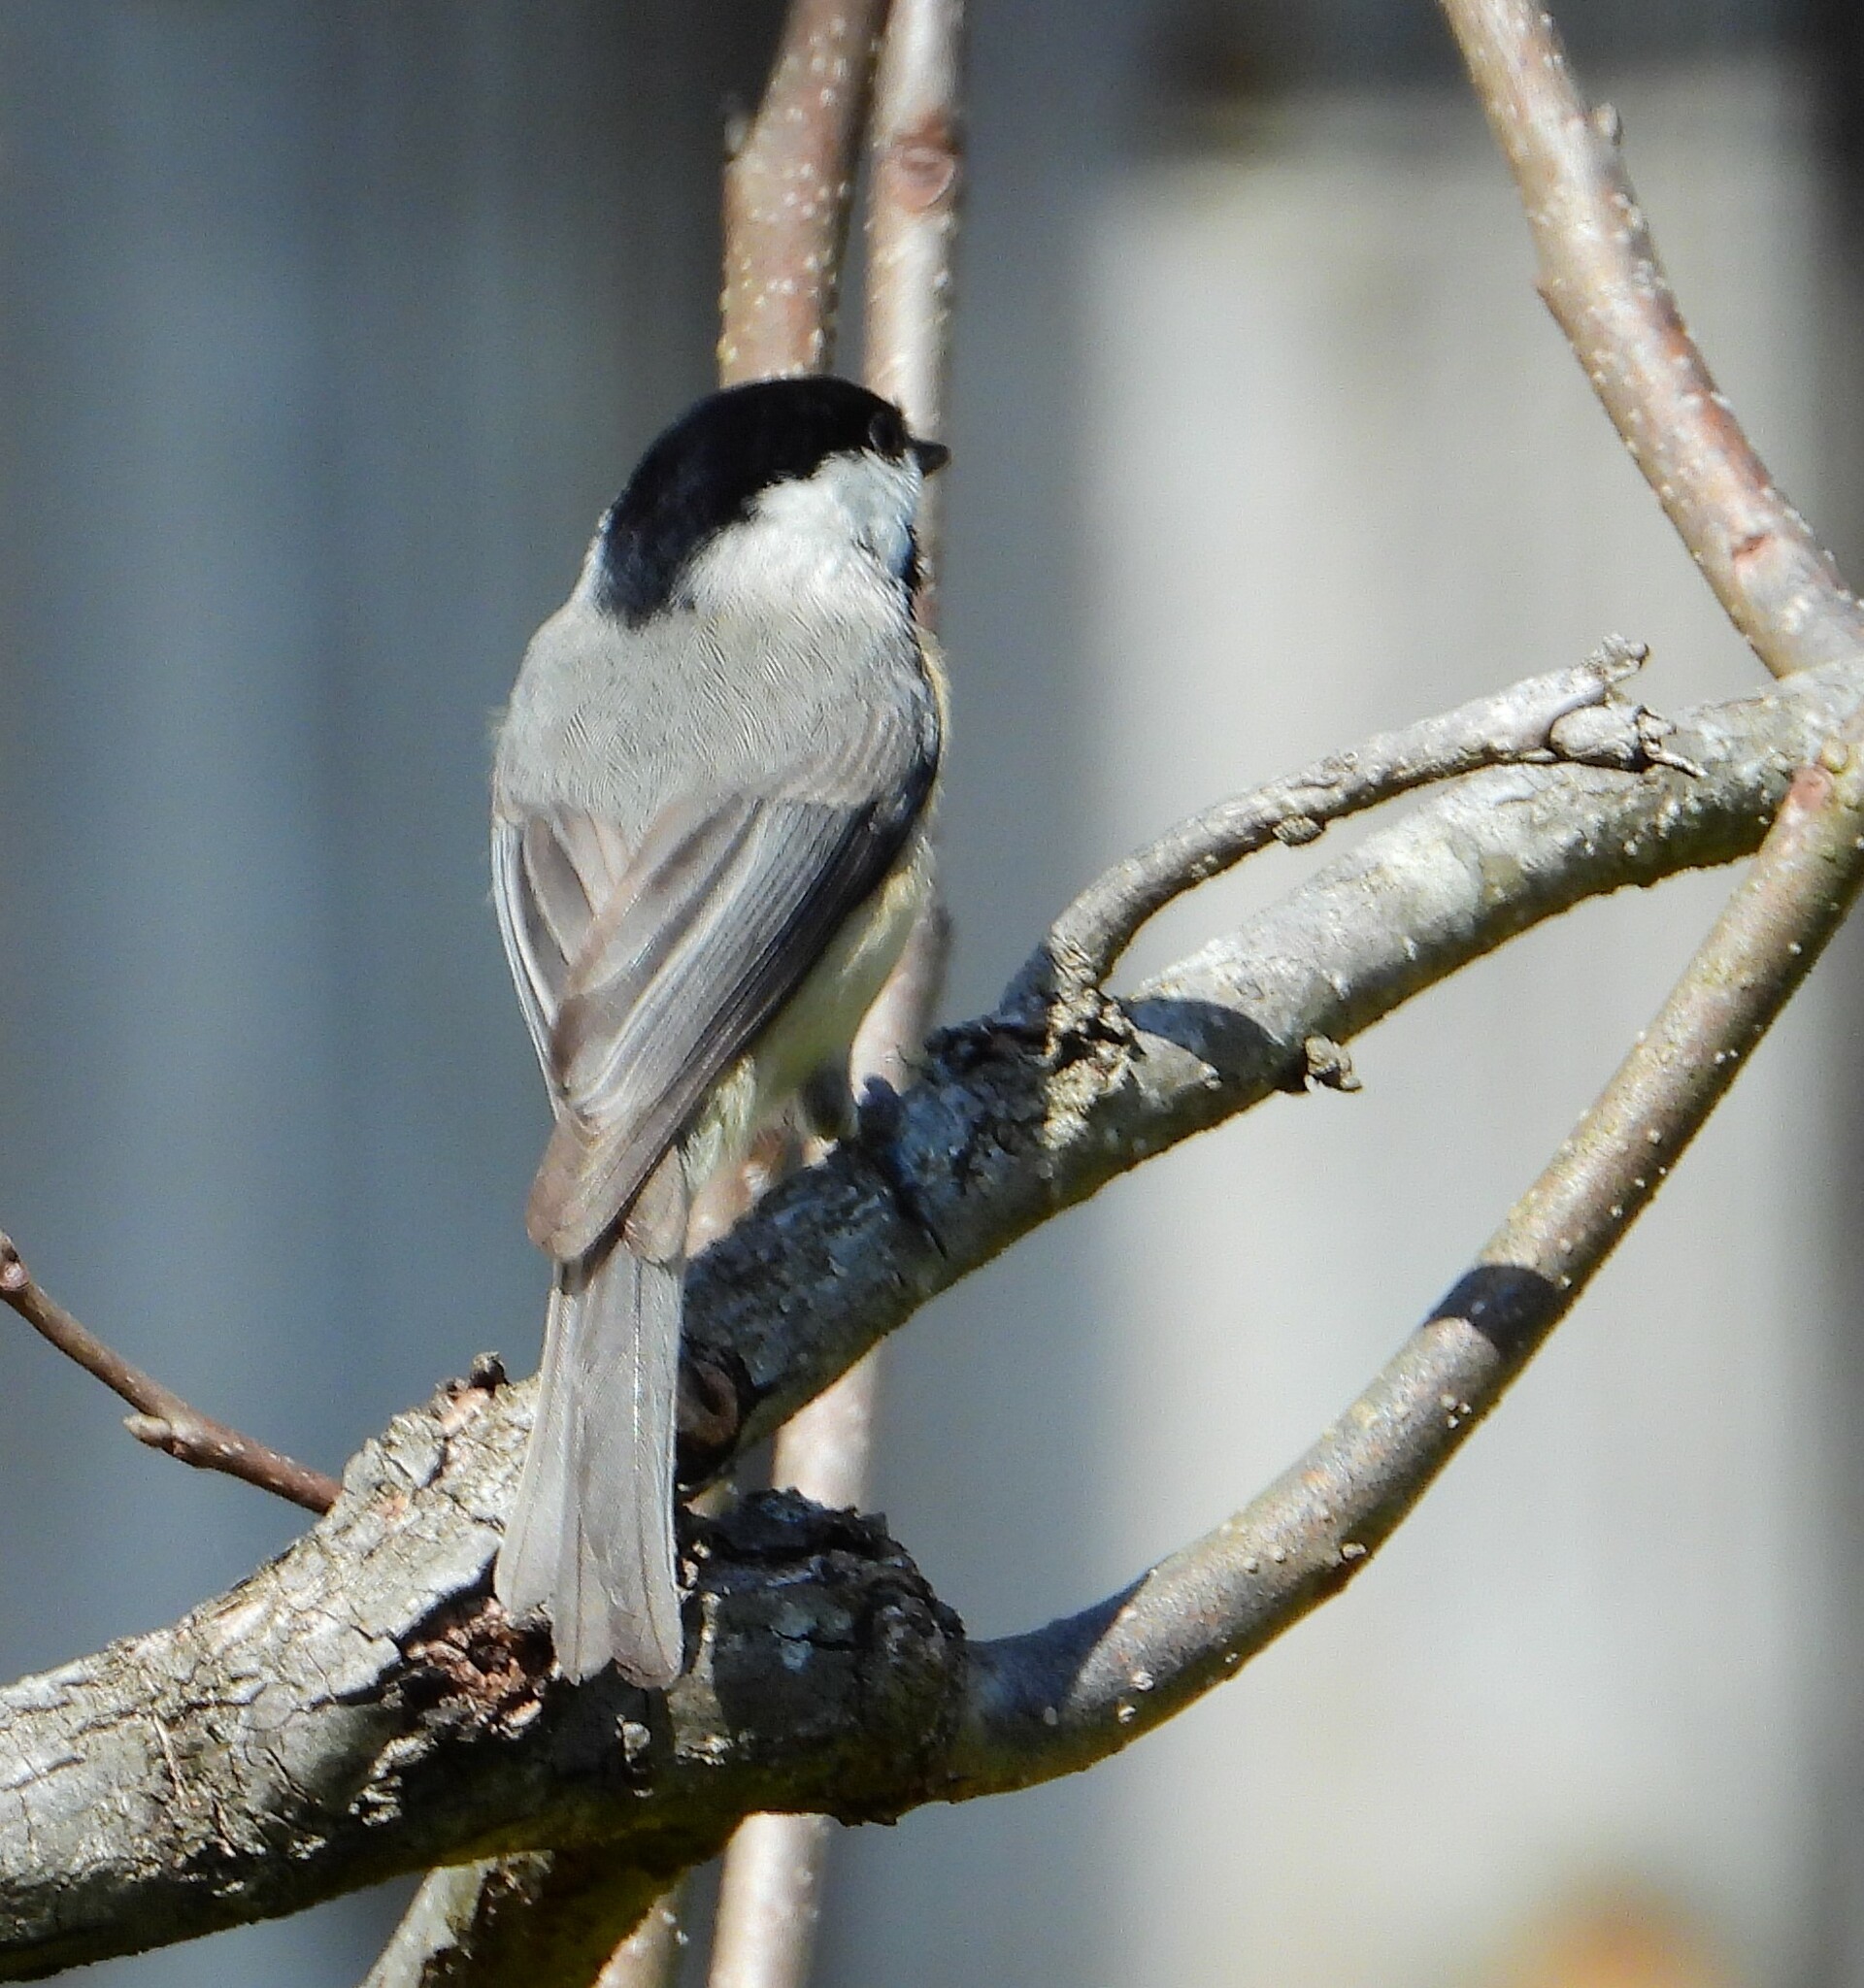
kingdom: Animalia
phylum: Chordata
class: Aves
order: Passeriformes
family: Paridae
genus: Poecile
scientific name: Poecile carolinensis
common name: Carolina chickadee
